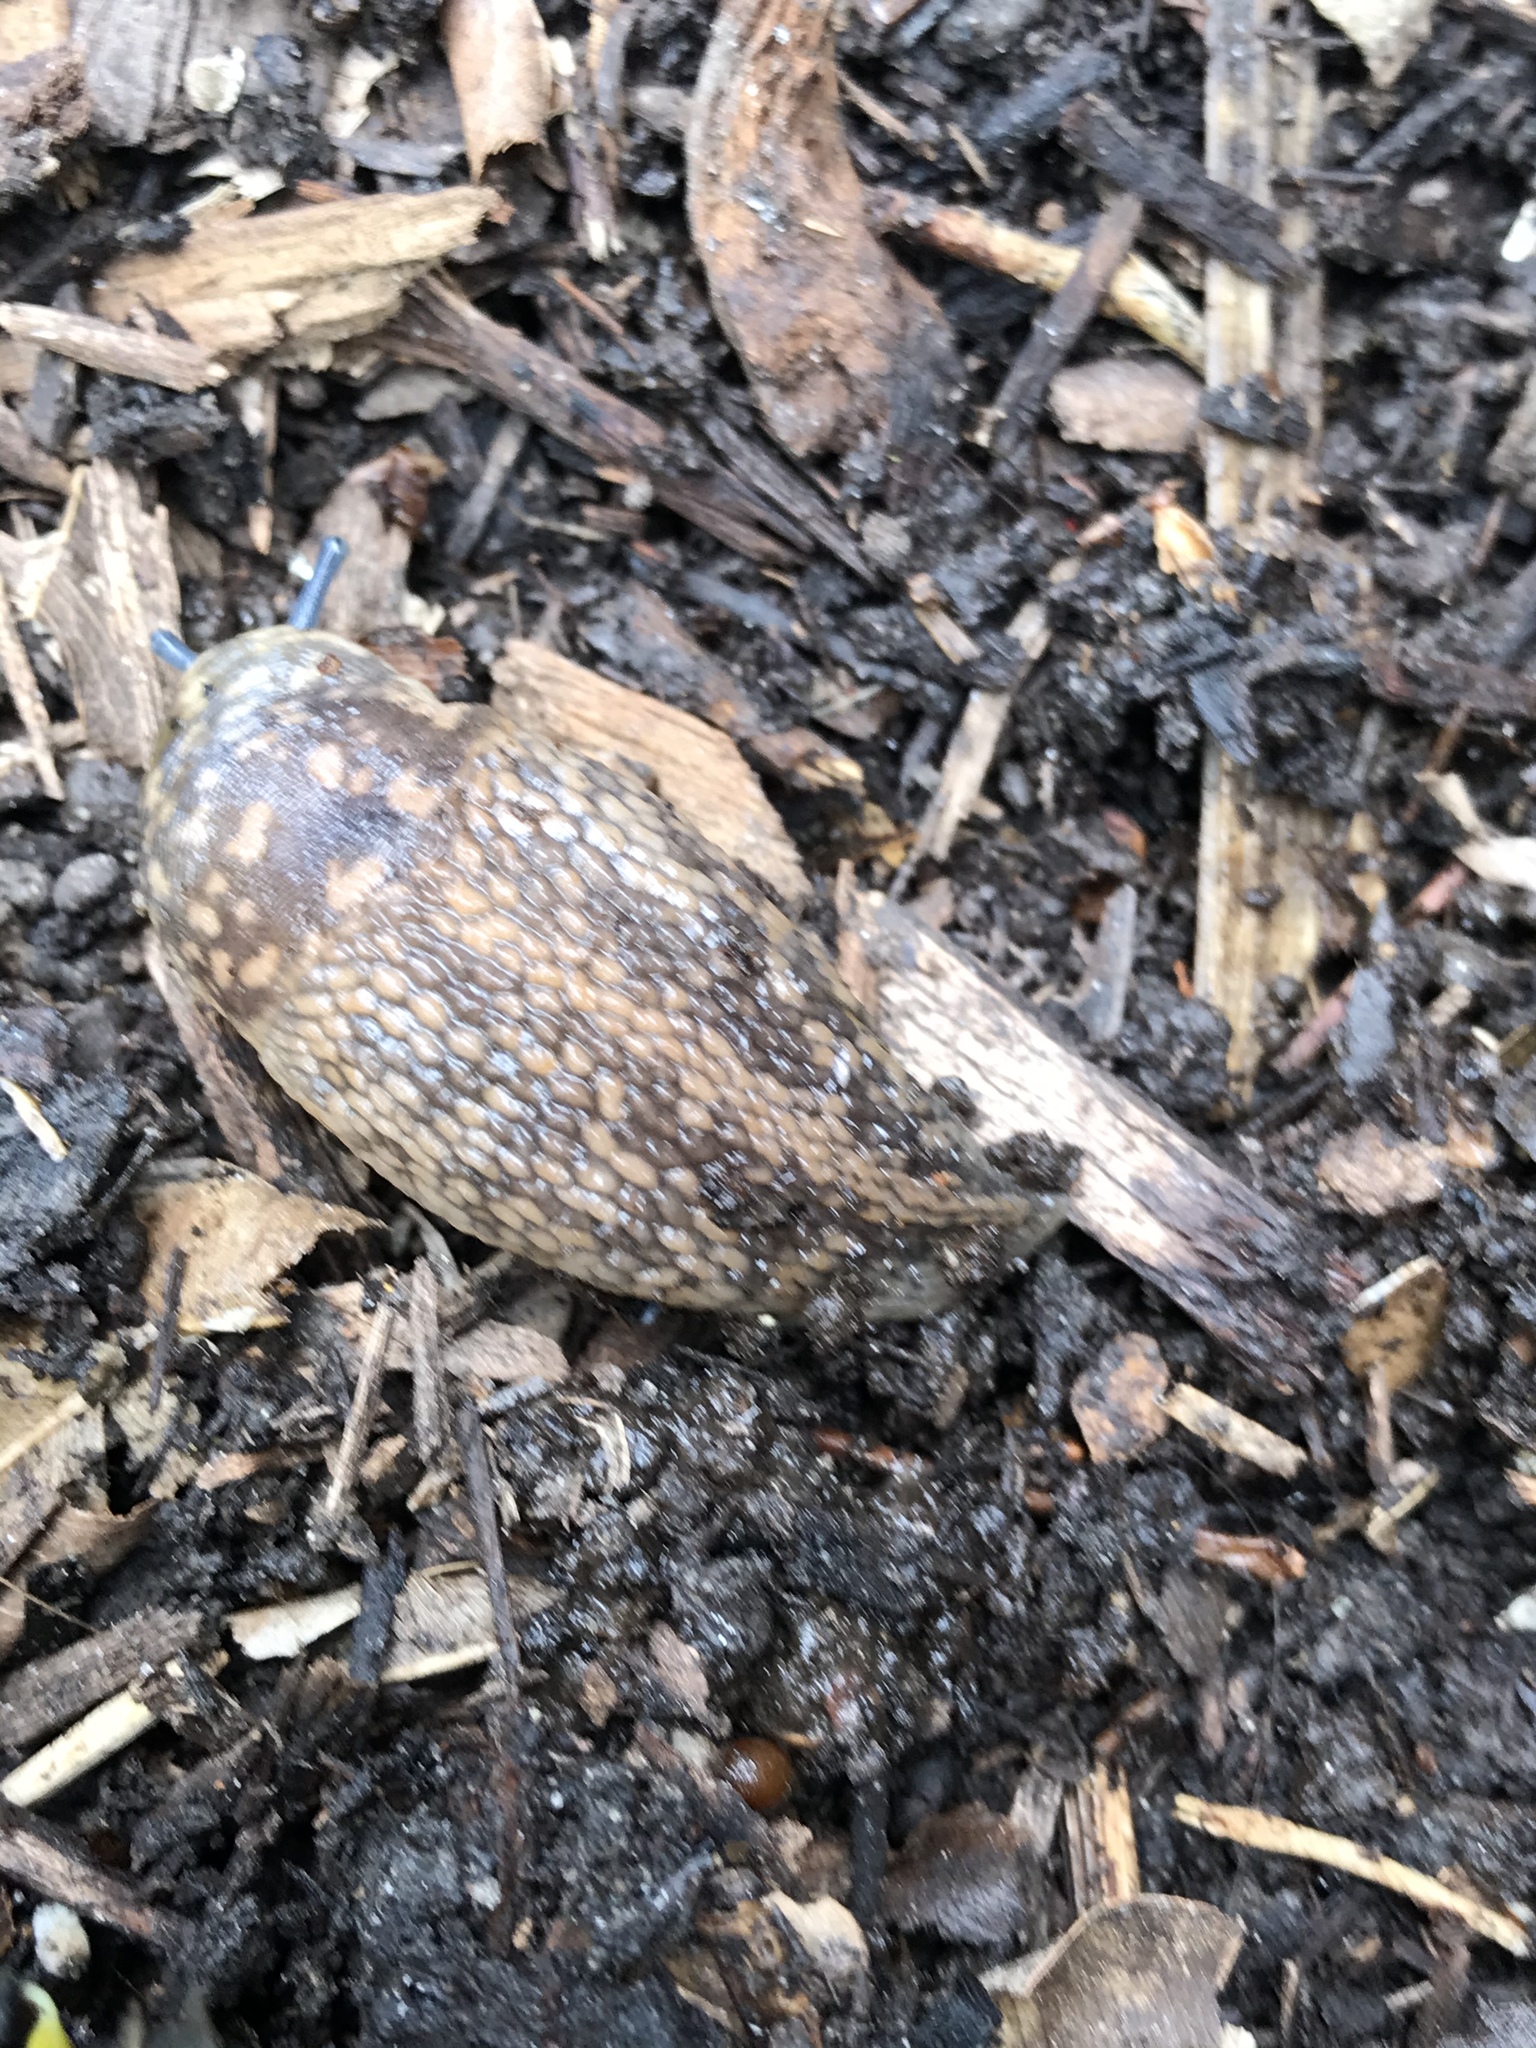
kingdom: Animalia
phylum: Mollusca
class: Gastropoda
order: Stylommatophora
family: Limacidae
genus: Limacus
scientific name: Limacus flavus
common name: Yellow gardenslug
